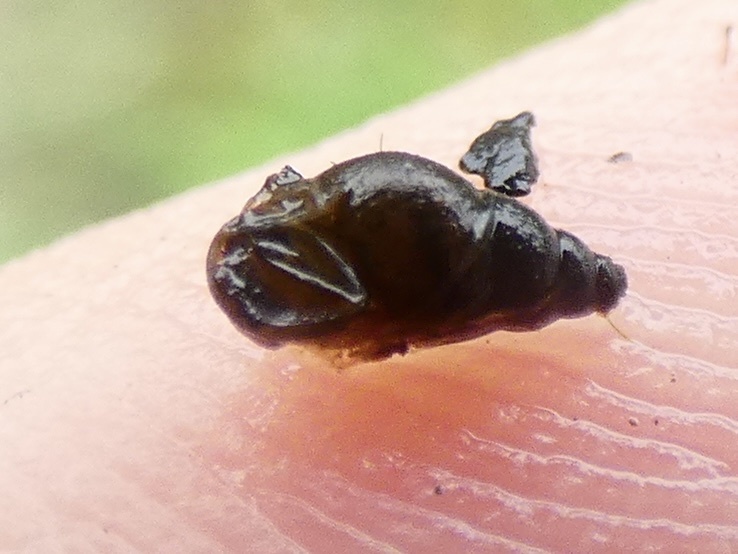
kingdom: Animalia
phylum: Mollusca
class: Gastropoda
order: Littorinimorpha
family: Tateidae
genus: Potamopyrgus
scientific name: Potamopyrgus antipodarum
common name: Jenkins' spire snail
